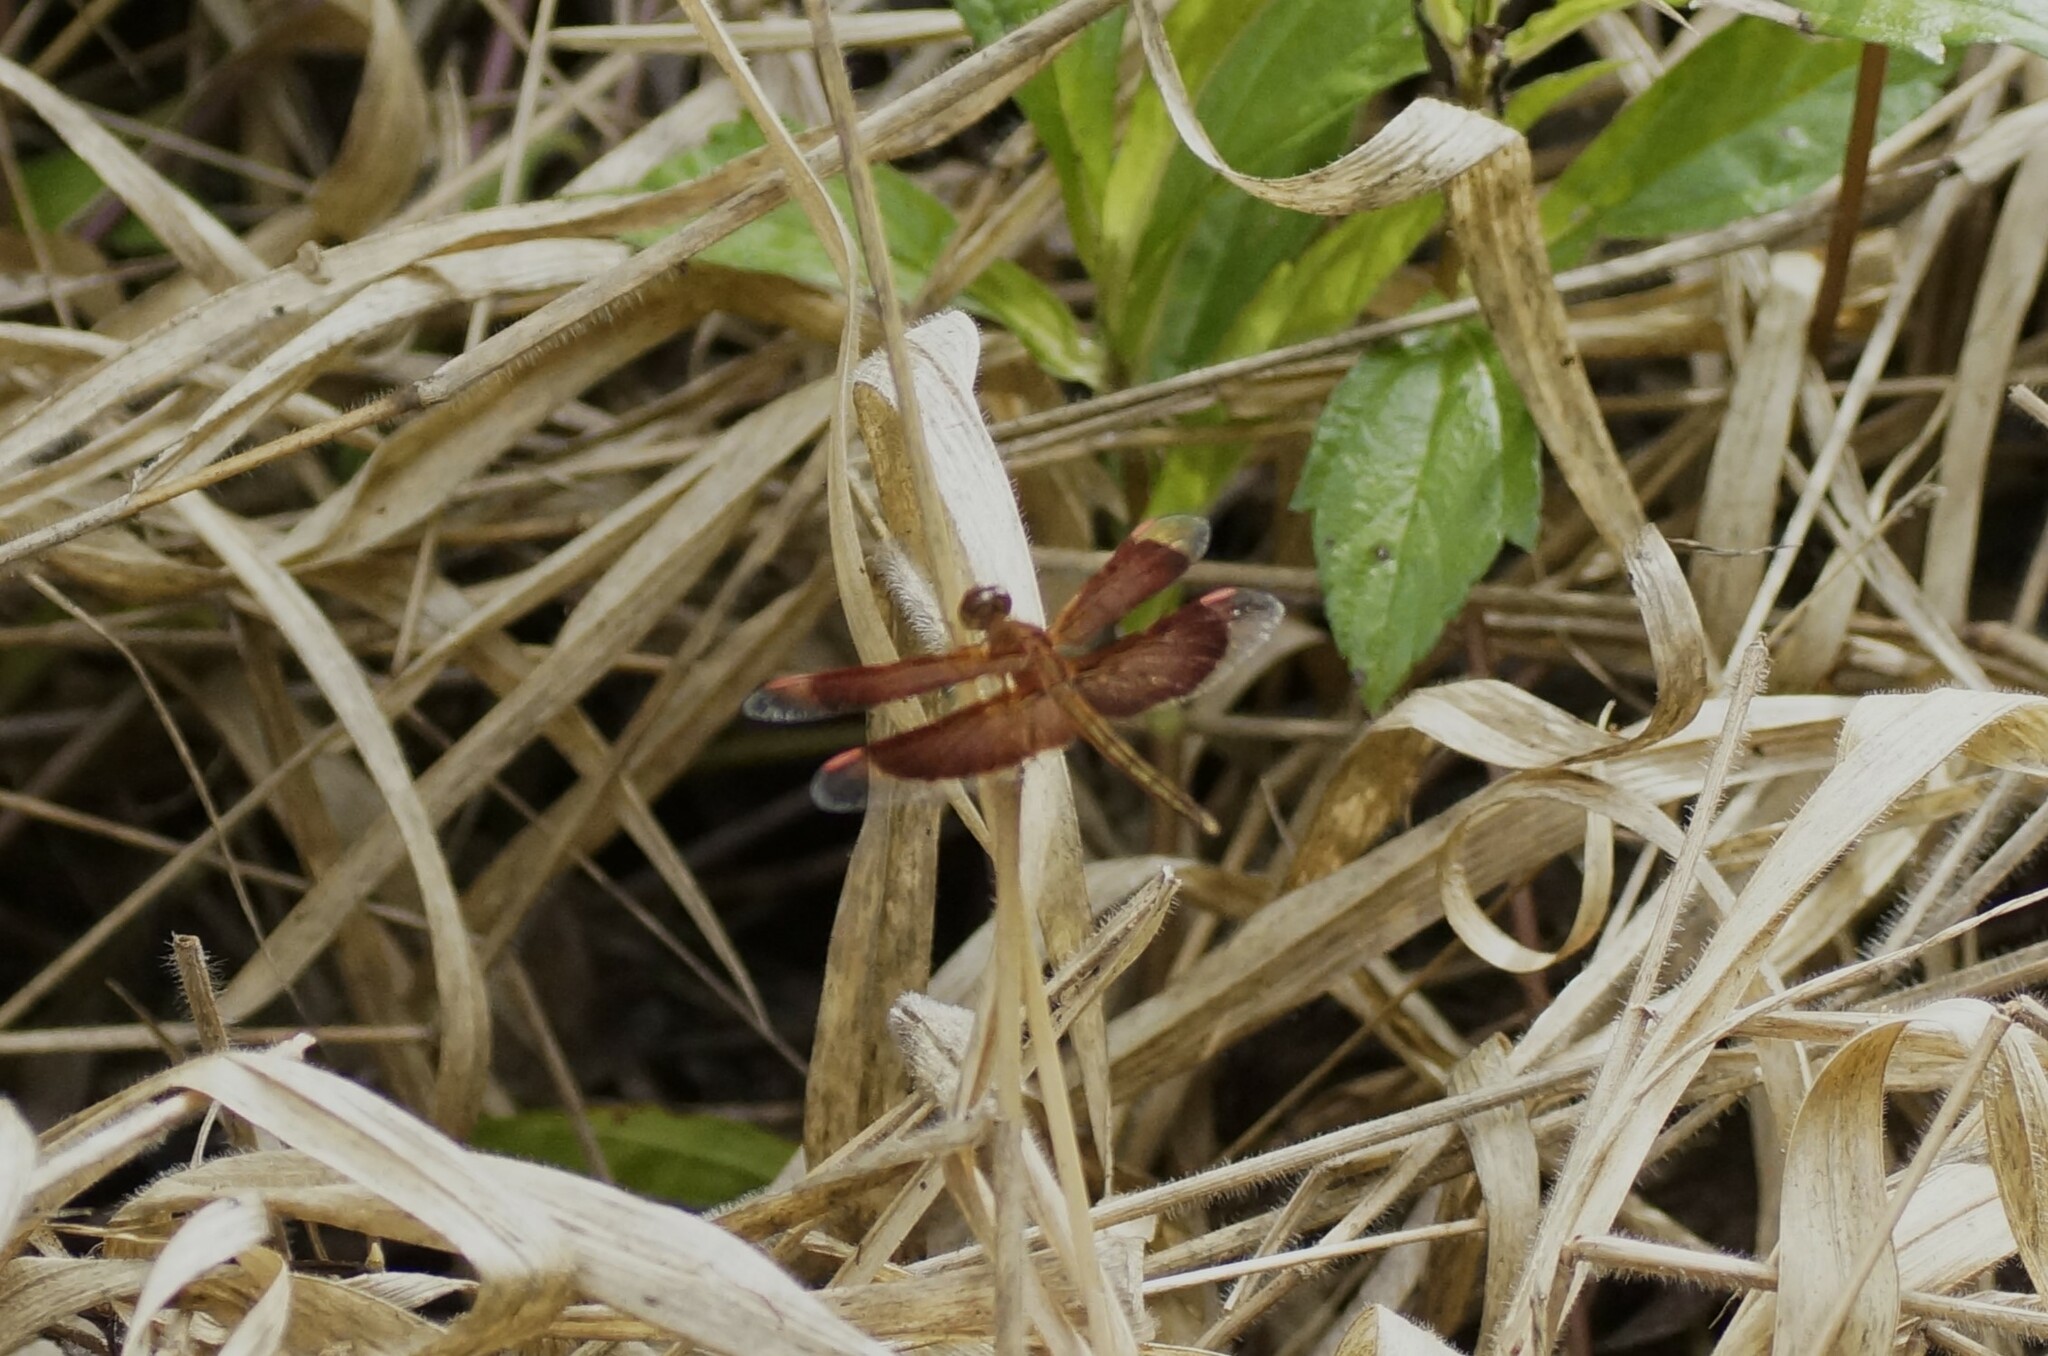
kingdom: Animalia
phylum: Arthropoda
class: Insecta
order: Odonata
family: Libellulidae
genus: Neurothemis
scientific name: Neurothemis stigmatizans
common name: Painted grasshawk
